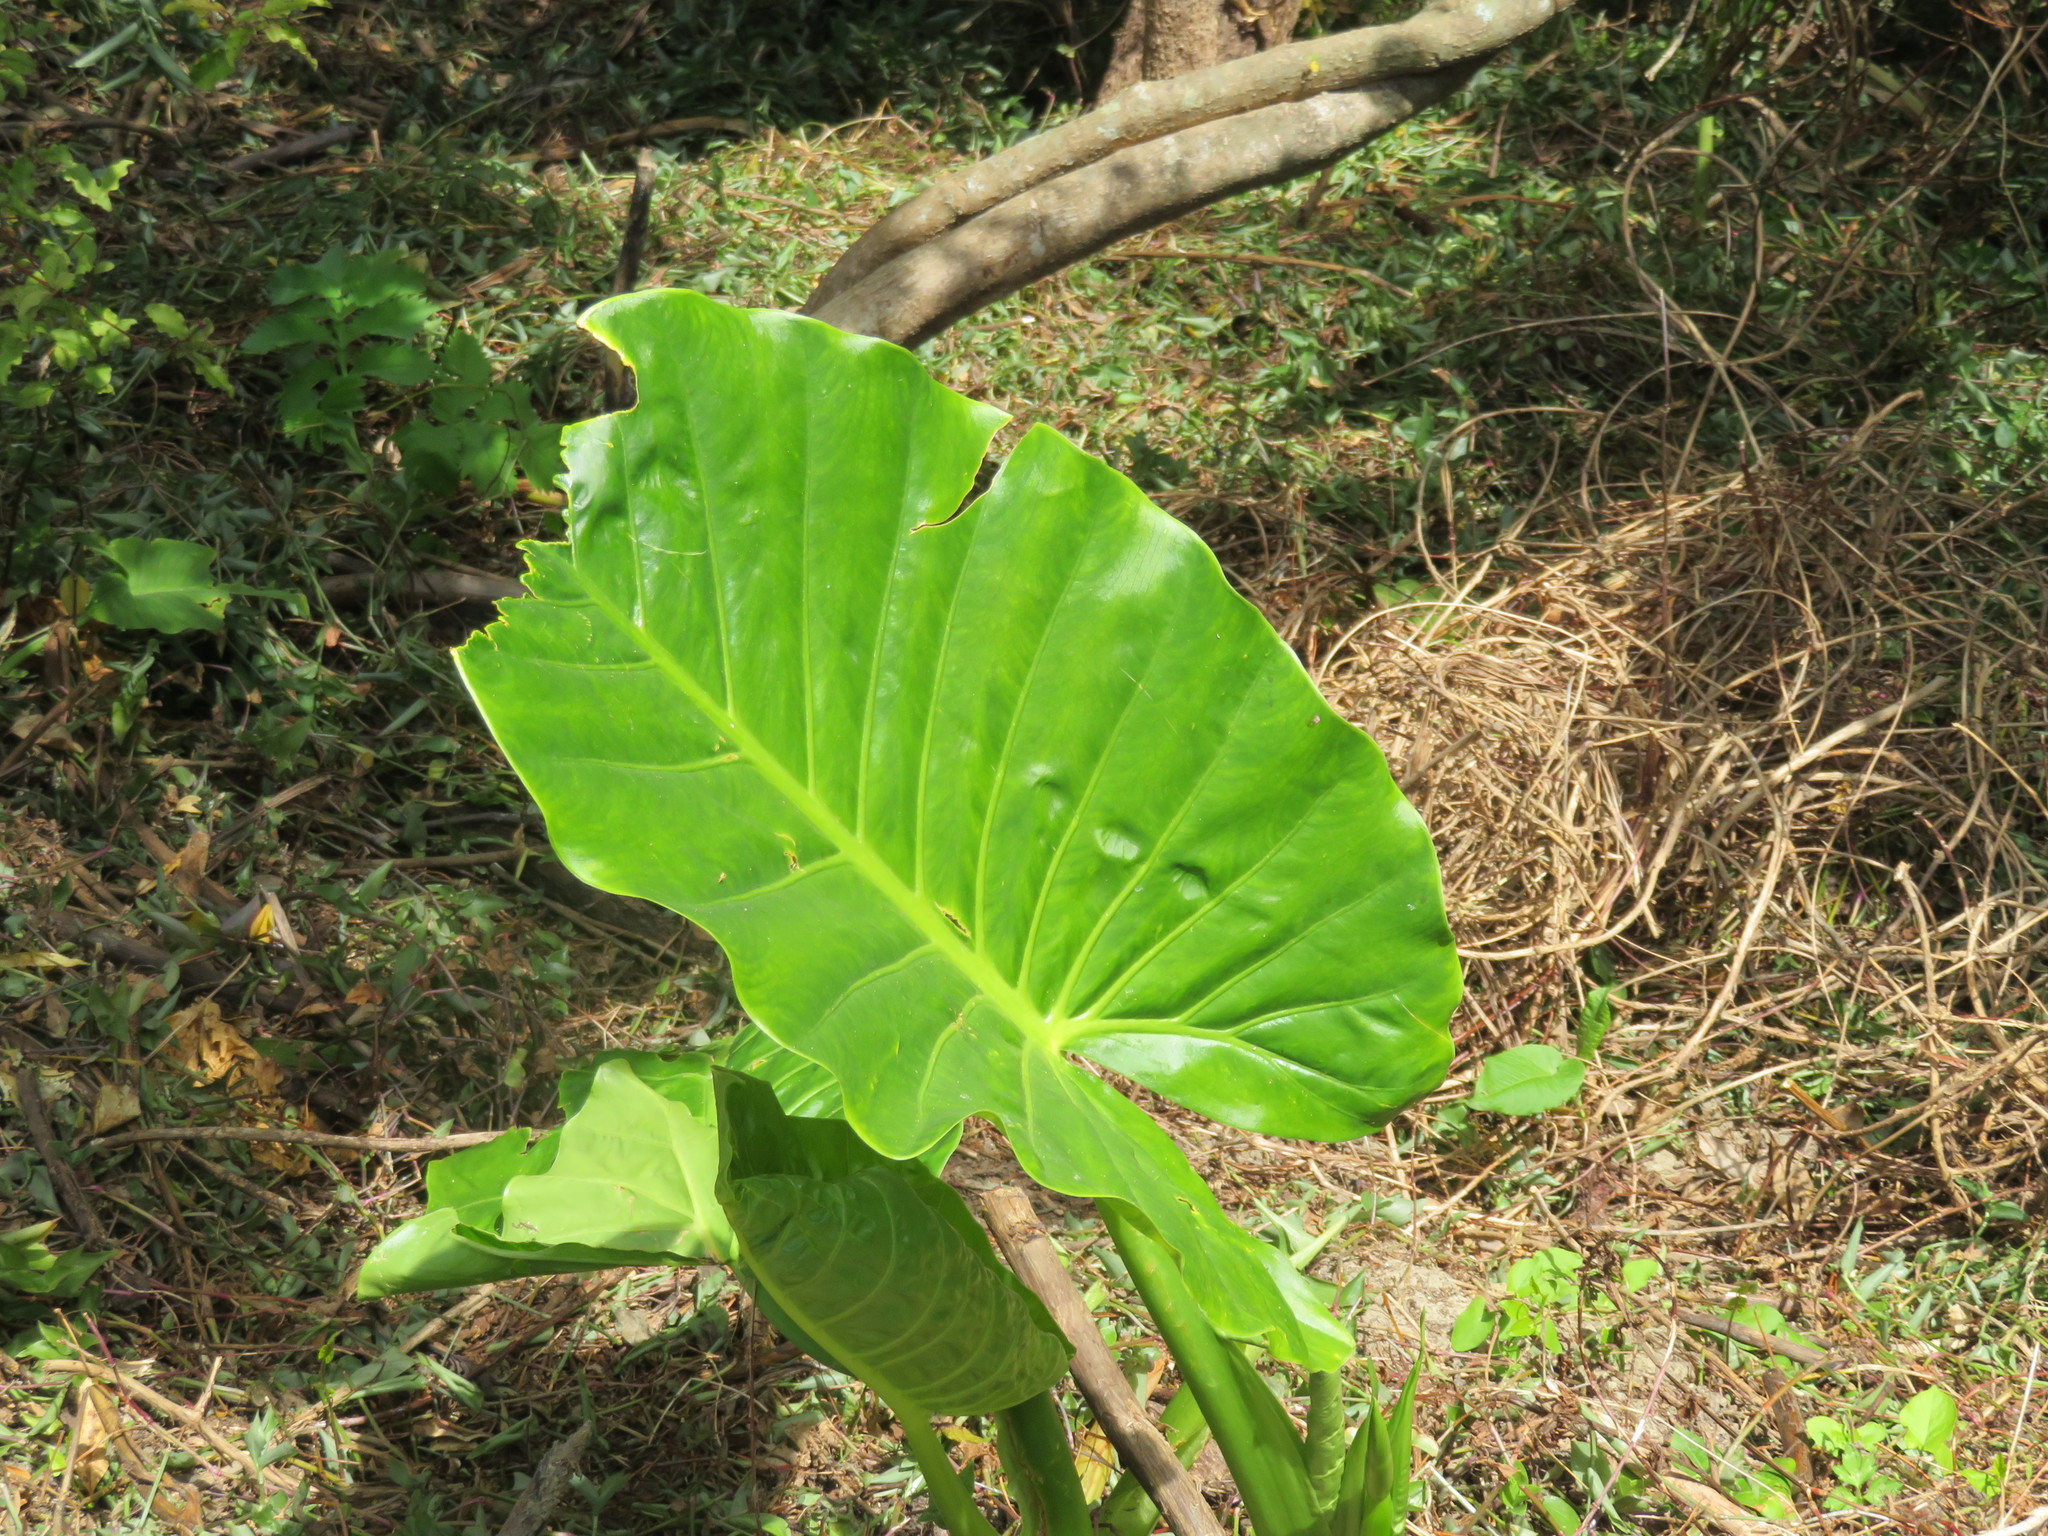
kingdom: Plantae
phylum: Tracheophyta
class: Liliopsida
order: Alismatales
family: Araceae
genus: Alocasia
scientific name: Alocasia brisbanensis
